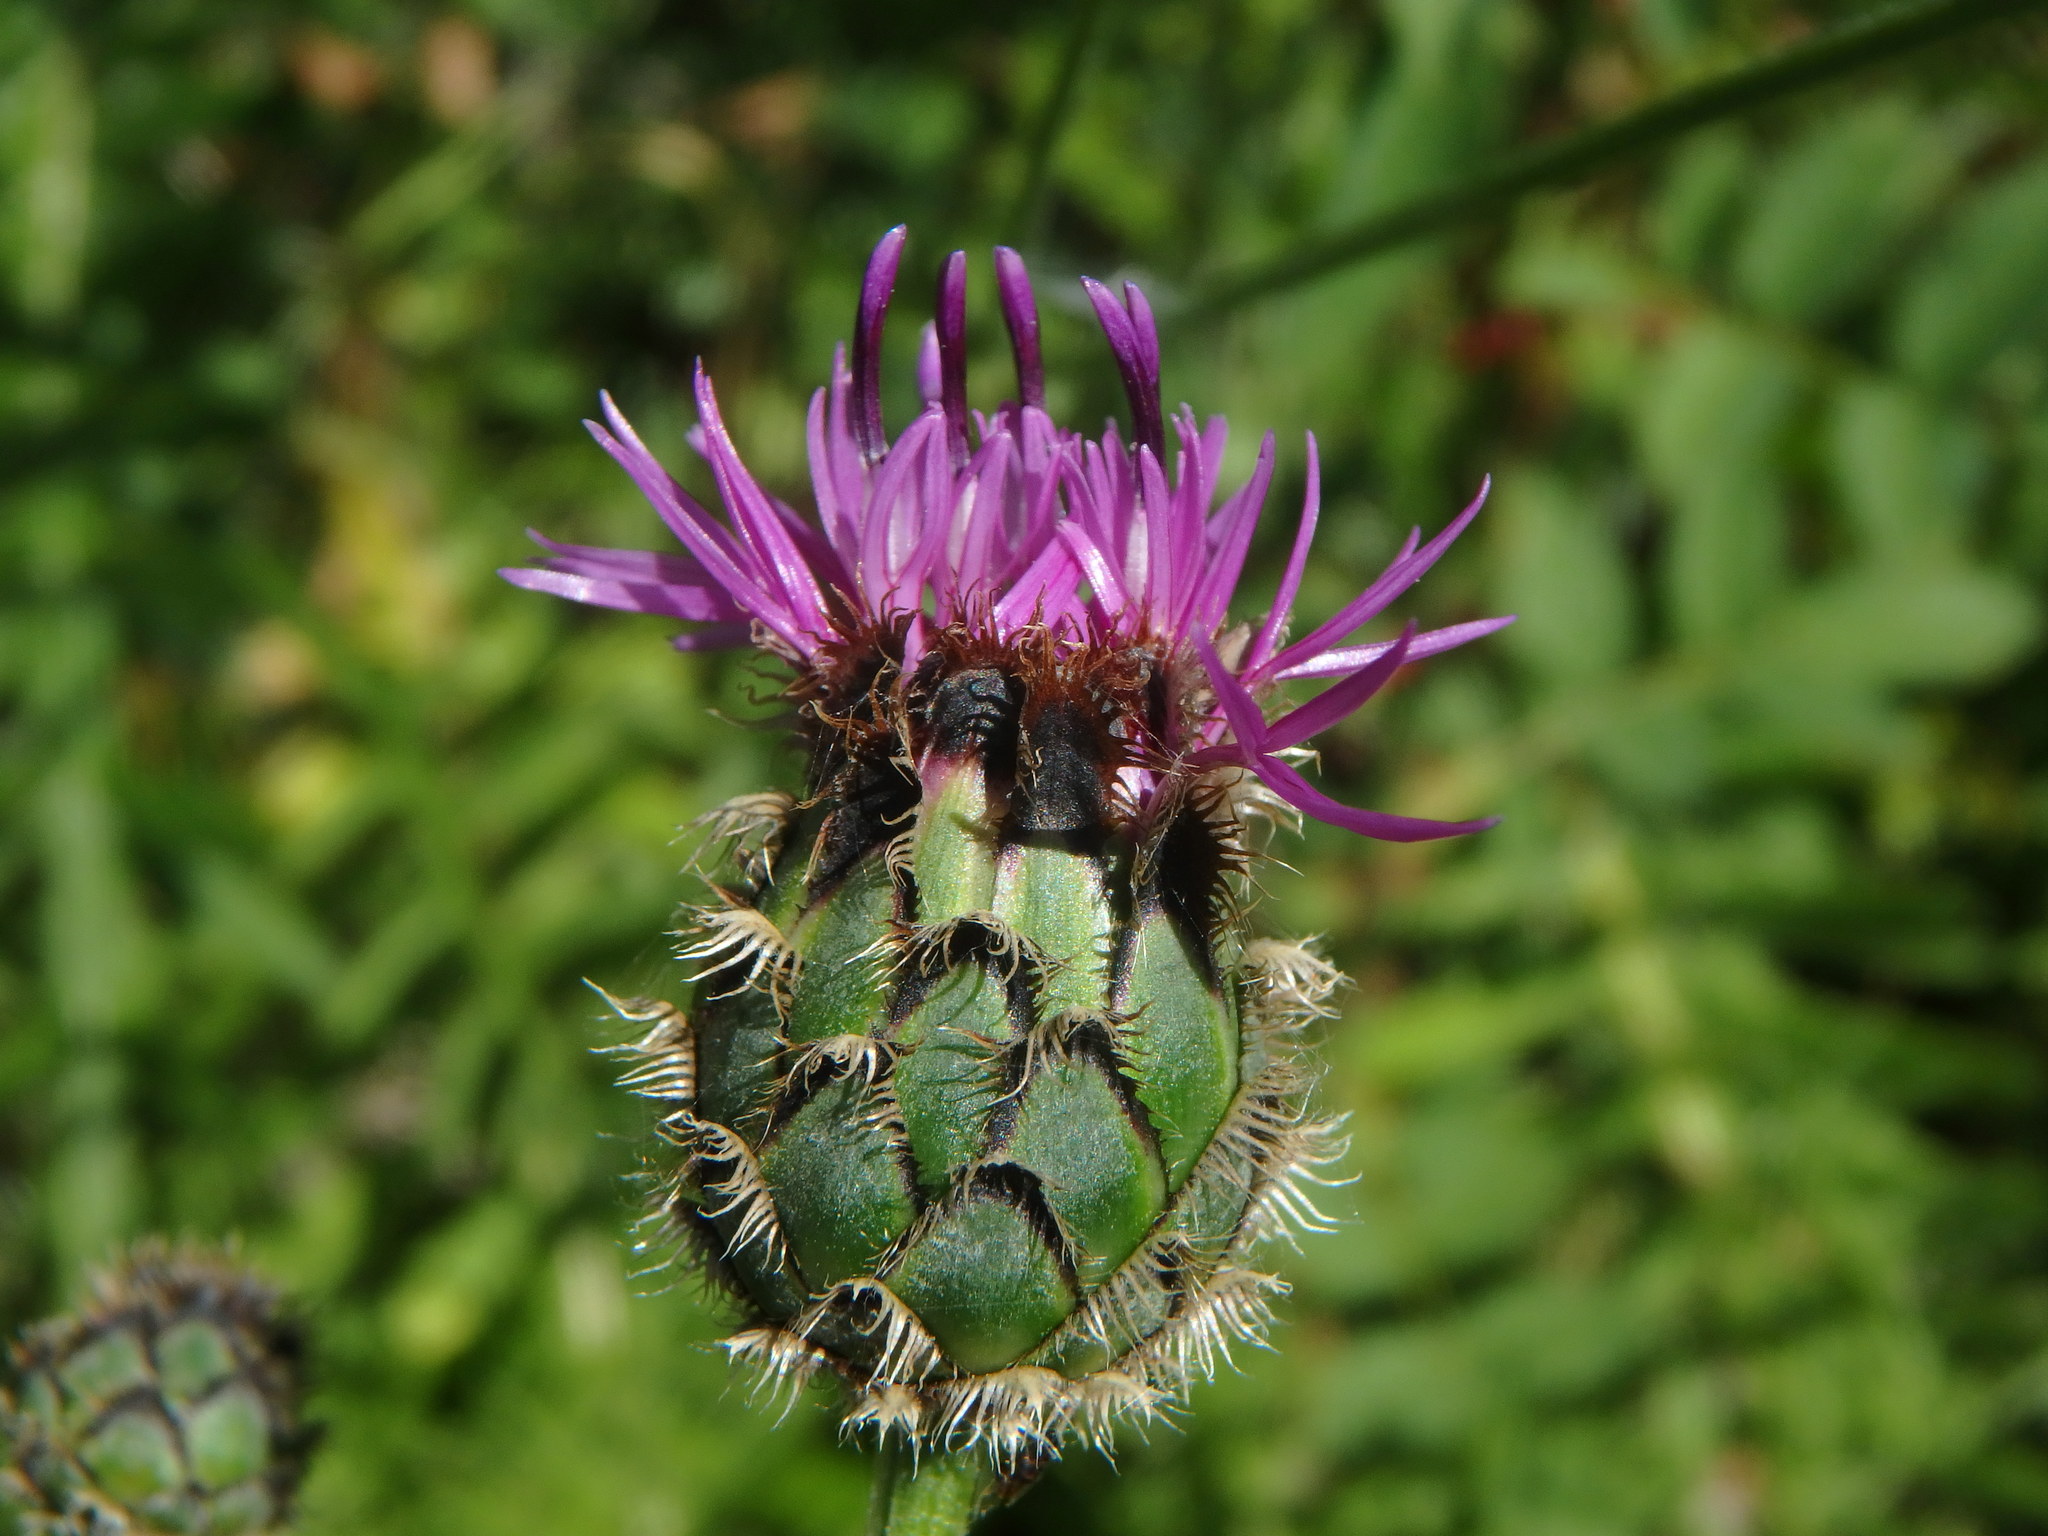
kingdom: Plantae
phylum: Tracheophyta
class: Magnoliopsida
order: Asterales
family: Asteraceae
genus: Centaurea
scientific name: Centaurea scabiosa
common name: Greater knapweed
